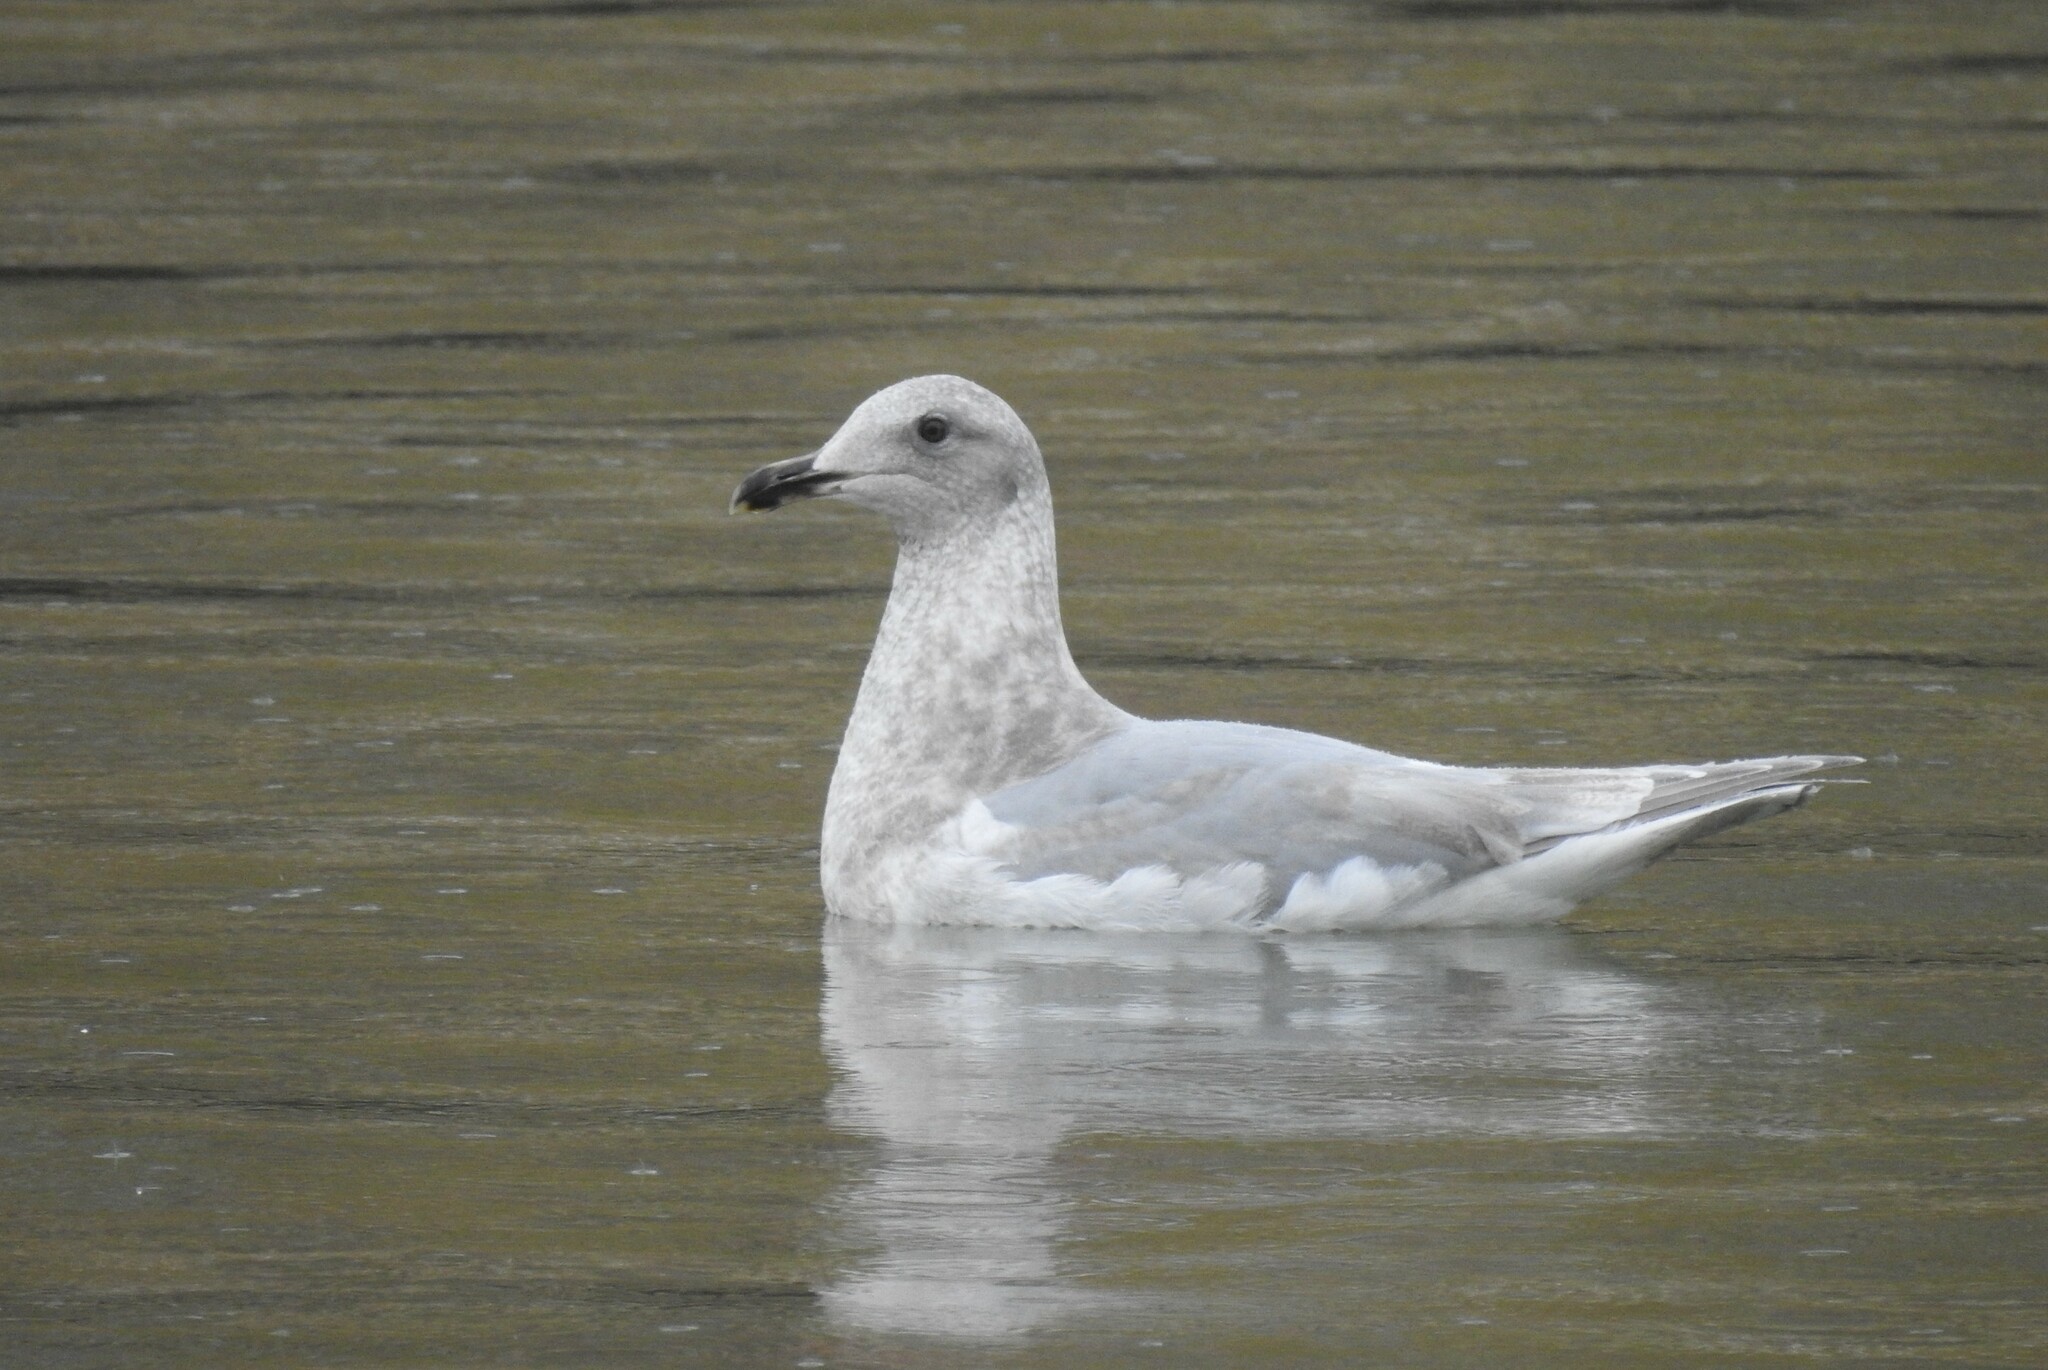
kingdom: Animalia
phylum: Chordata
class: Aves
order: Charadriiformes
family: Laridae
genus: Larus
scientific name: Larus glaucescens
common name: Glaucous-winged gull
